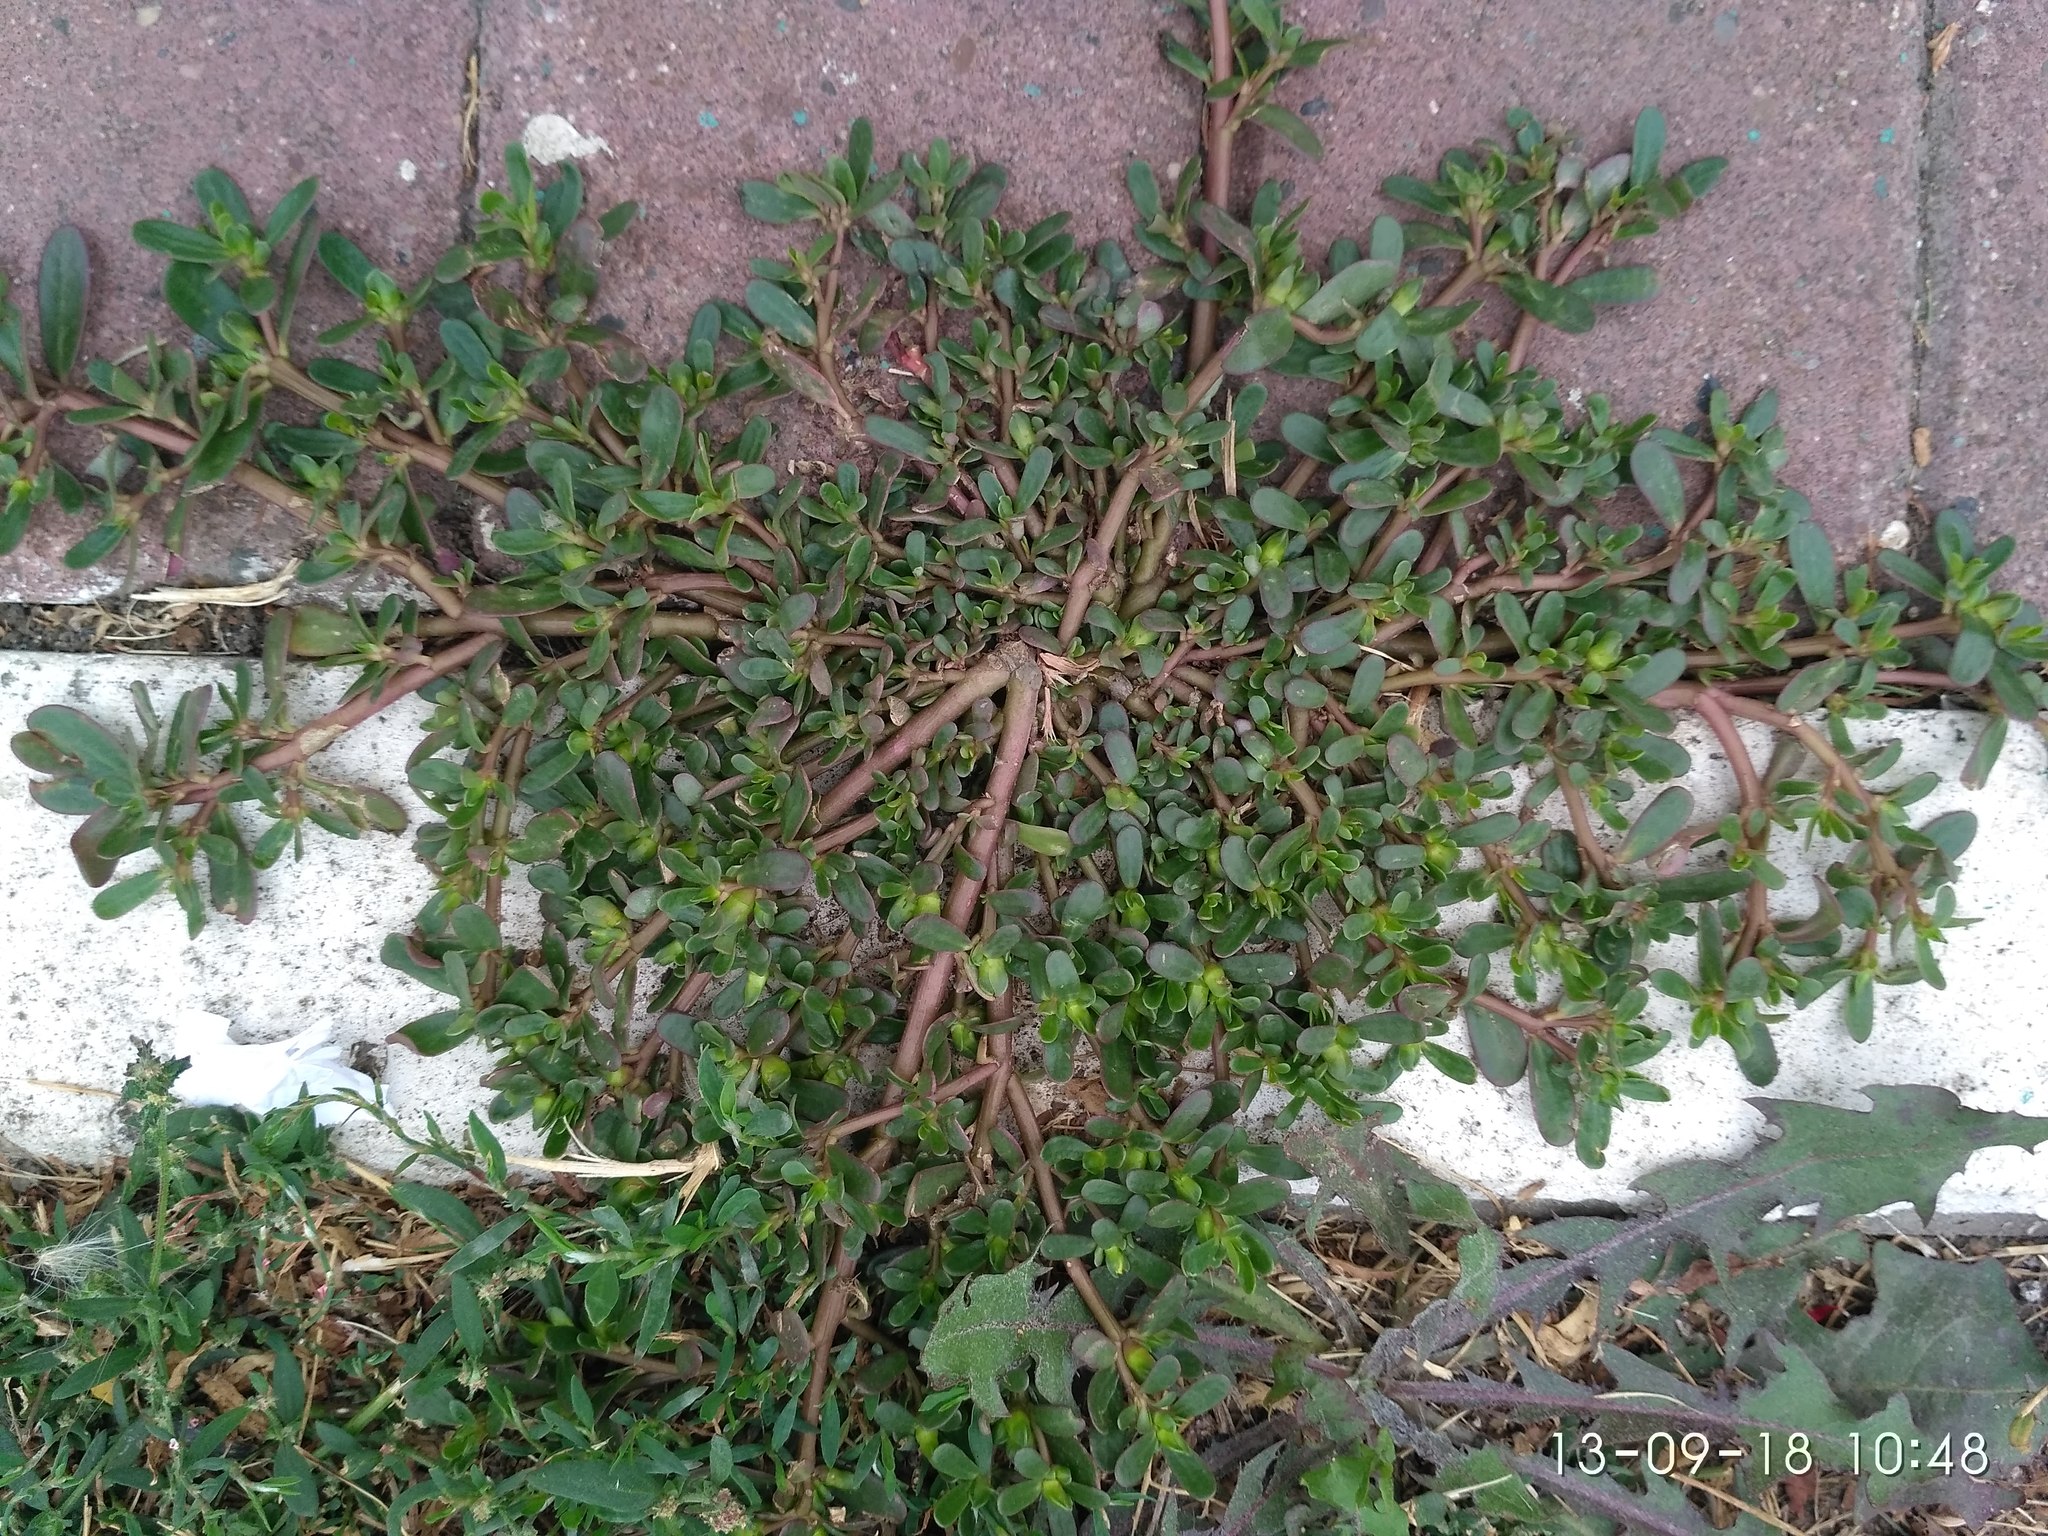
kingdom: Plantae
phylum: Tracheophyta
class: Magnoliopsida
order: Caryophyllales
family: Portulacaceae
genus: Portulaca
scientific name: Portulaca oleracea
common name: Common purslane
